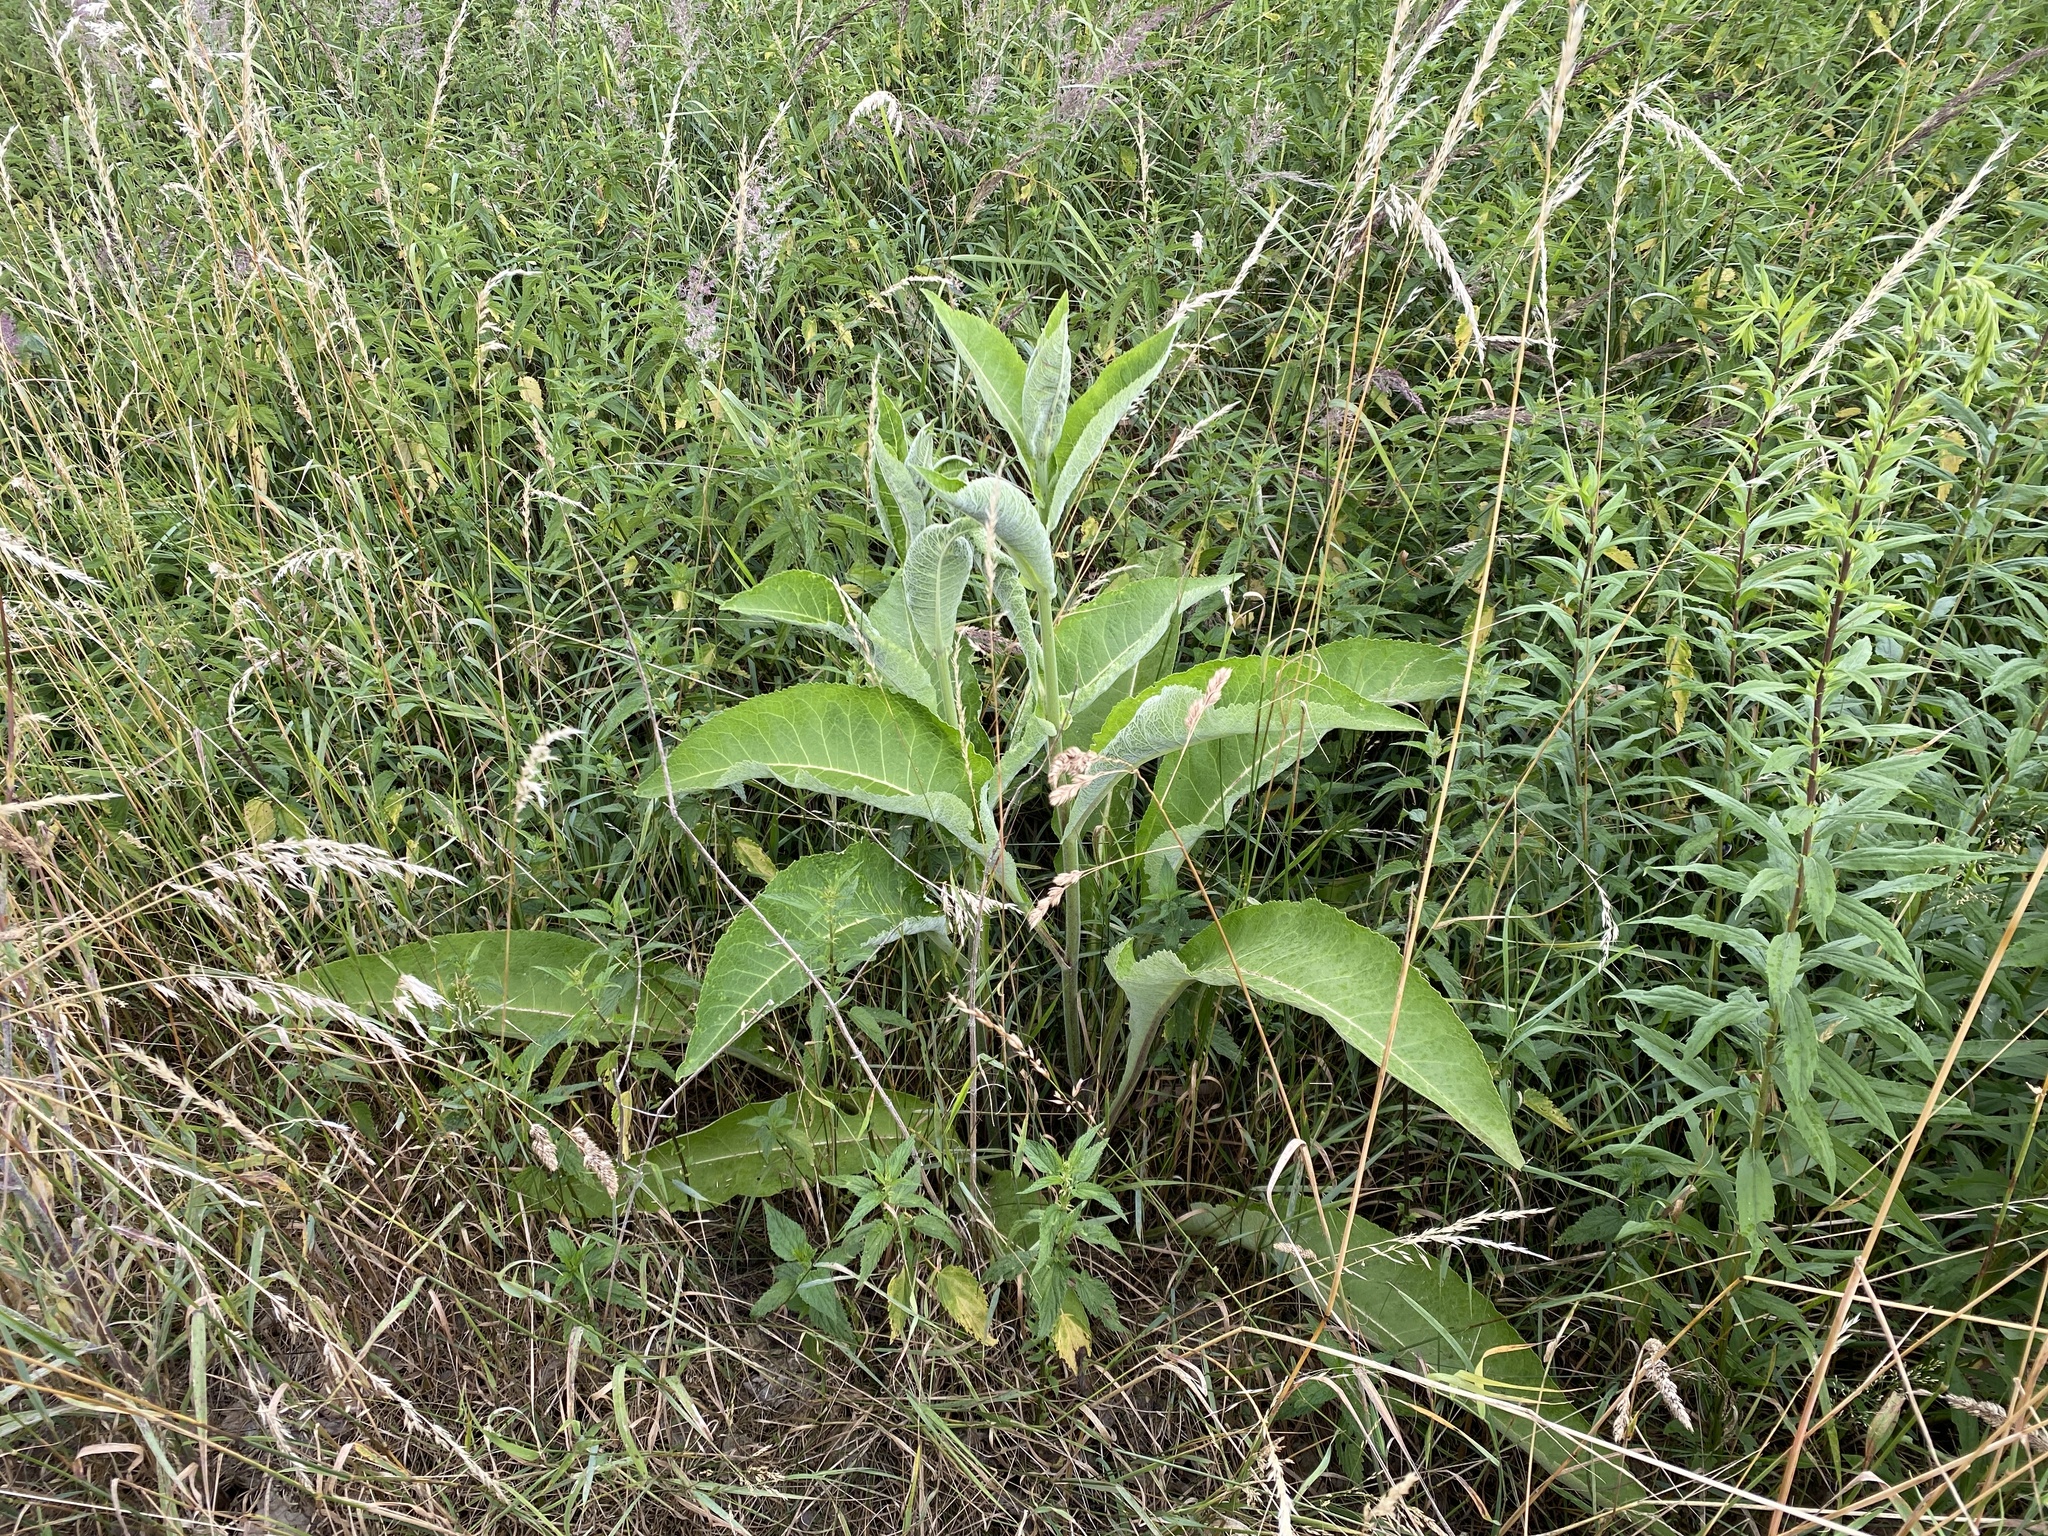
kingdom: Plantae
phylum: Tracheophyta
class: Magnoliopsida
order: Asterales
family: Asteraceae
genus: Inula
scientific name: Inula helenium
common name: Elecampane
